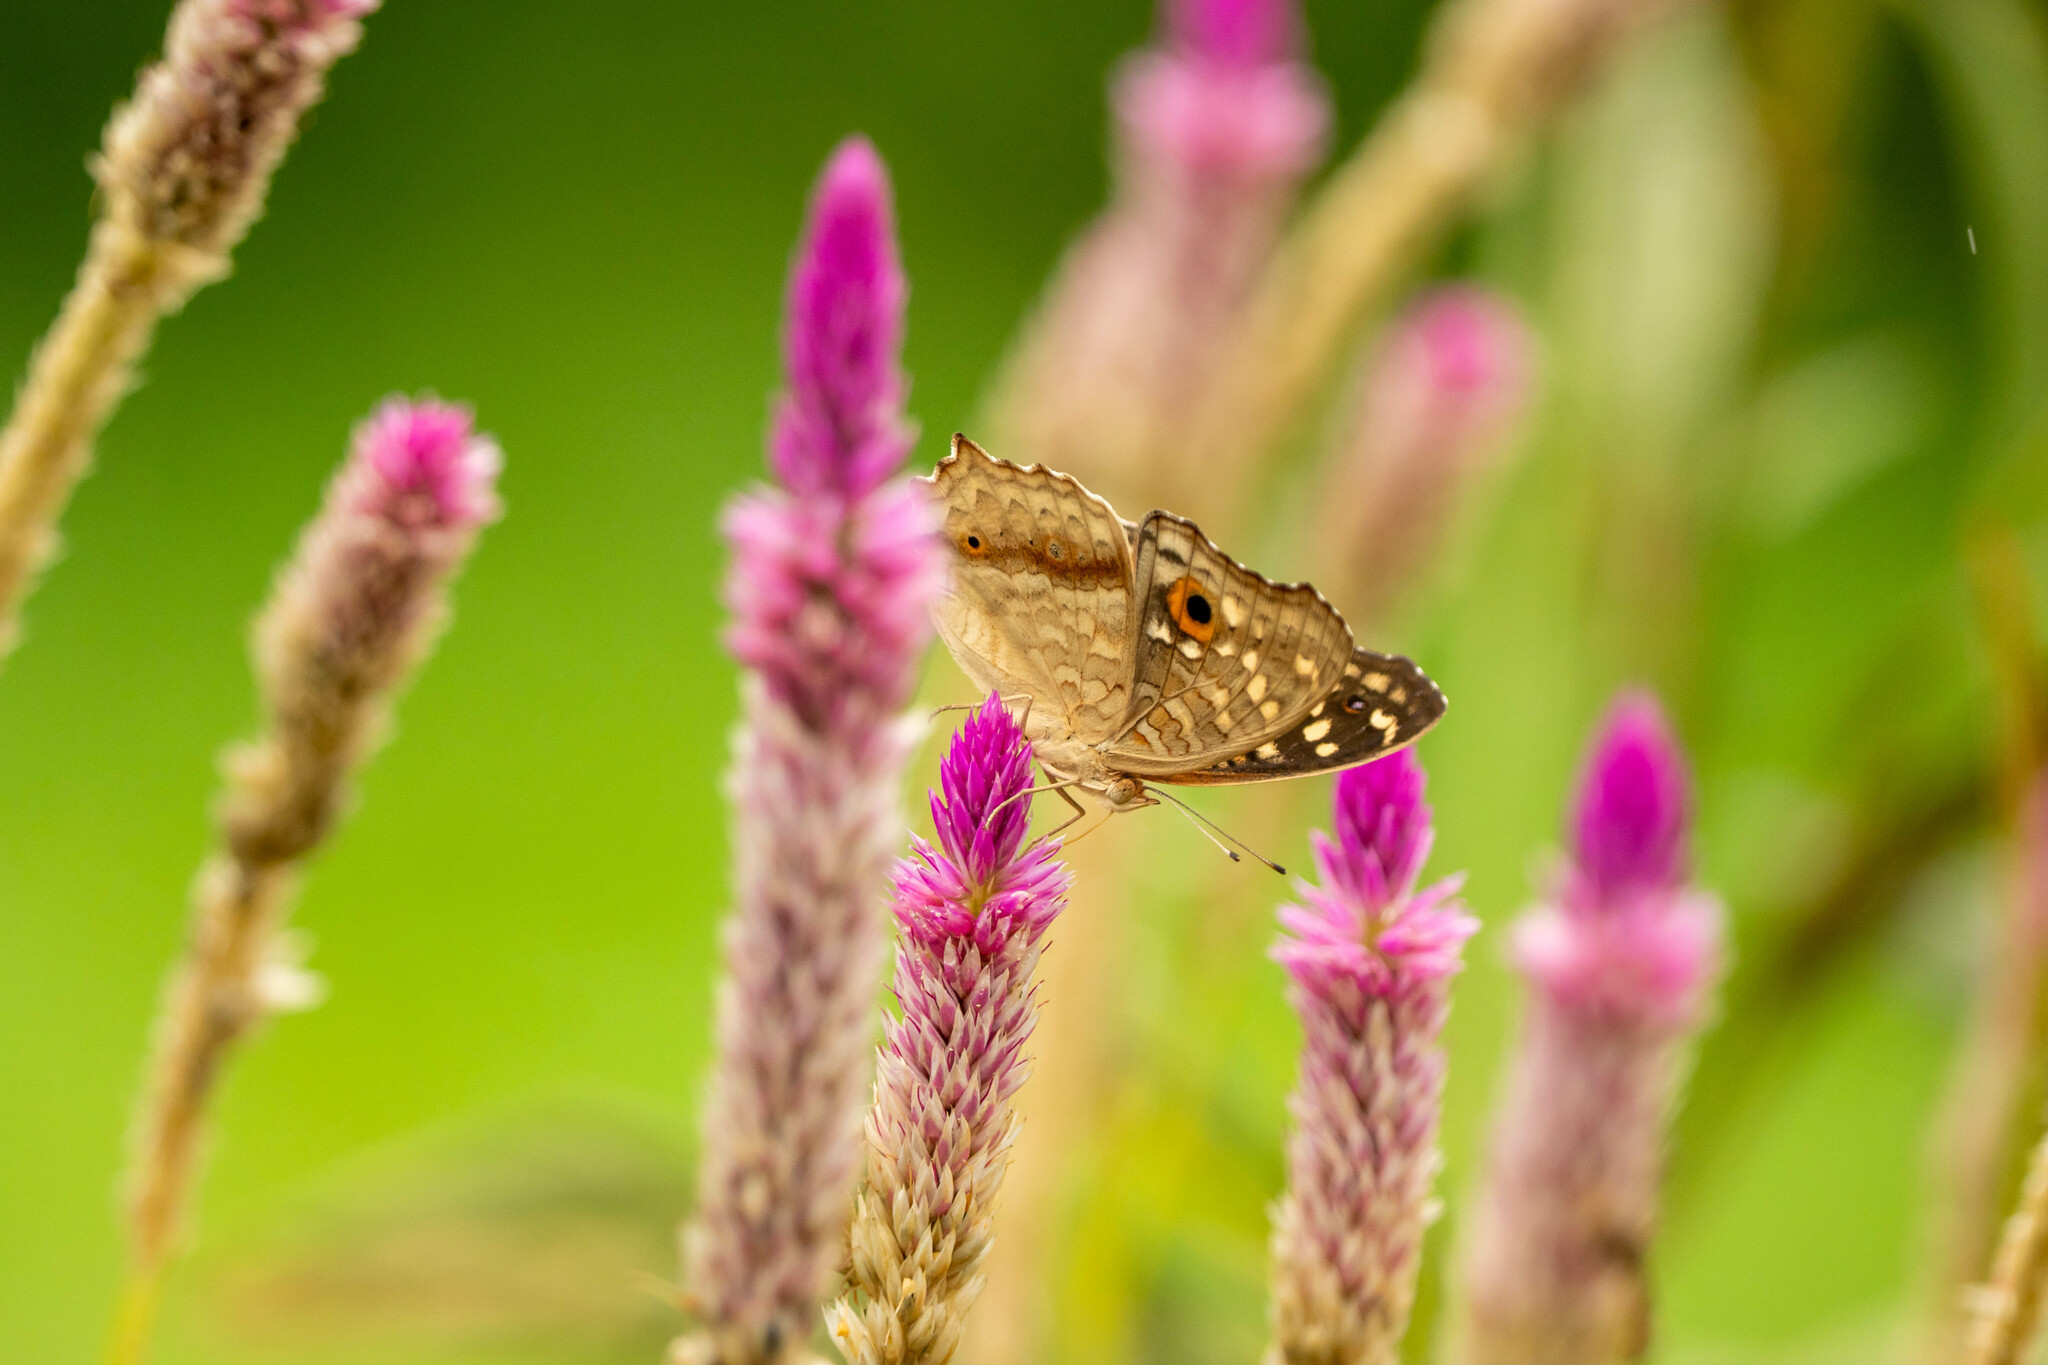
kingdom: Animalia
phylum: Arthropoda
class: Insecta
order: Lepidoptera
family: Nymphalidae
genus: Junonia
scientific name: Junonia lemonias
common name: Lemon pansy
